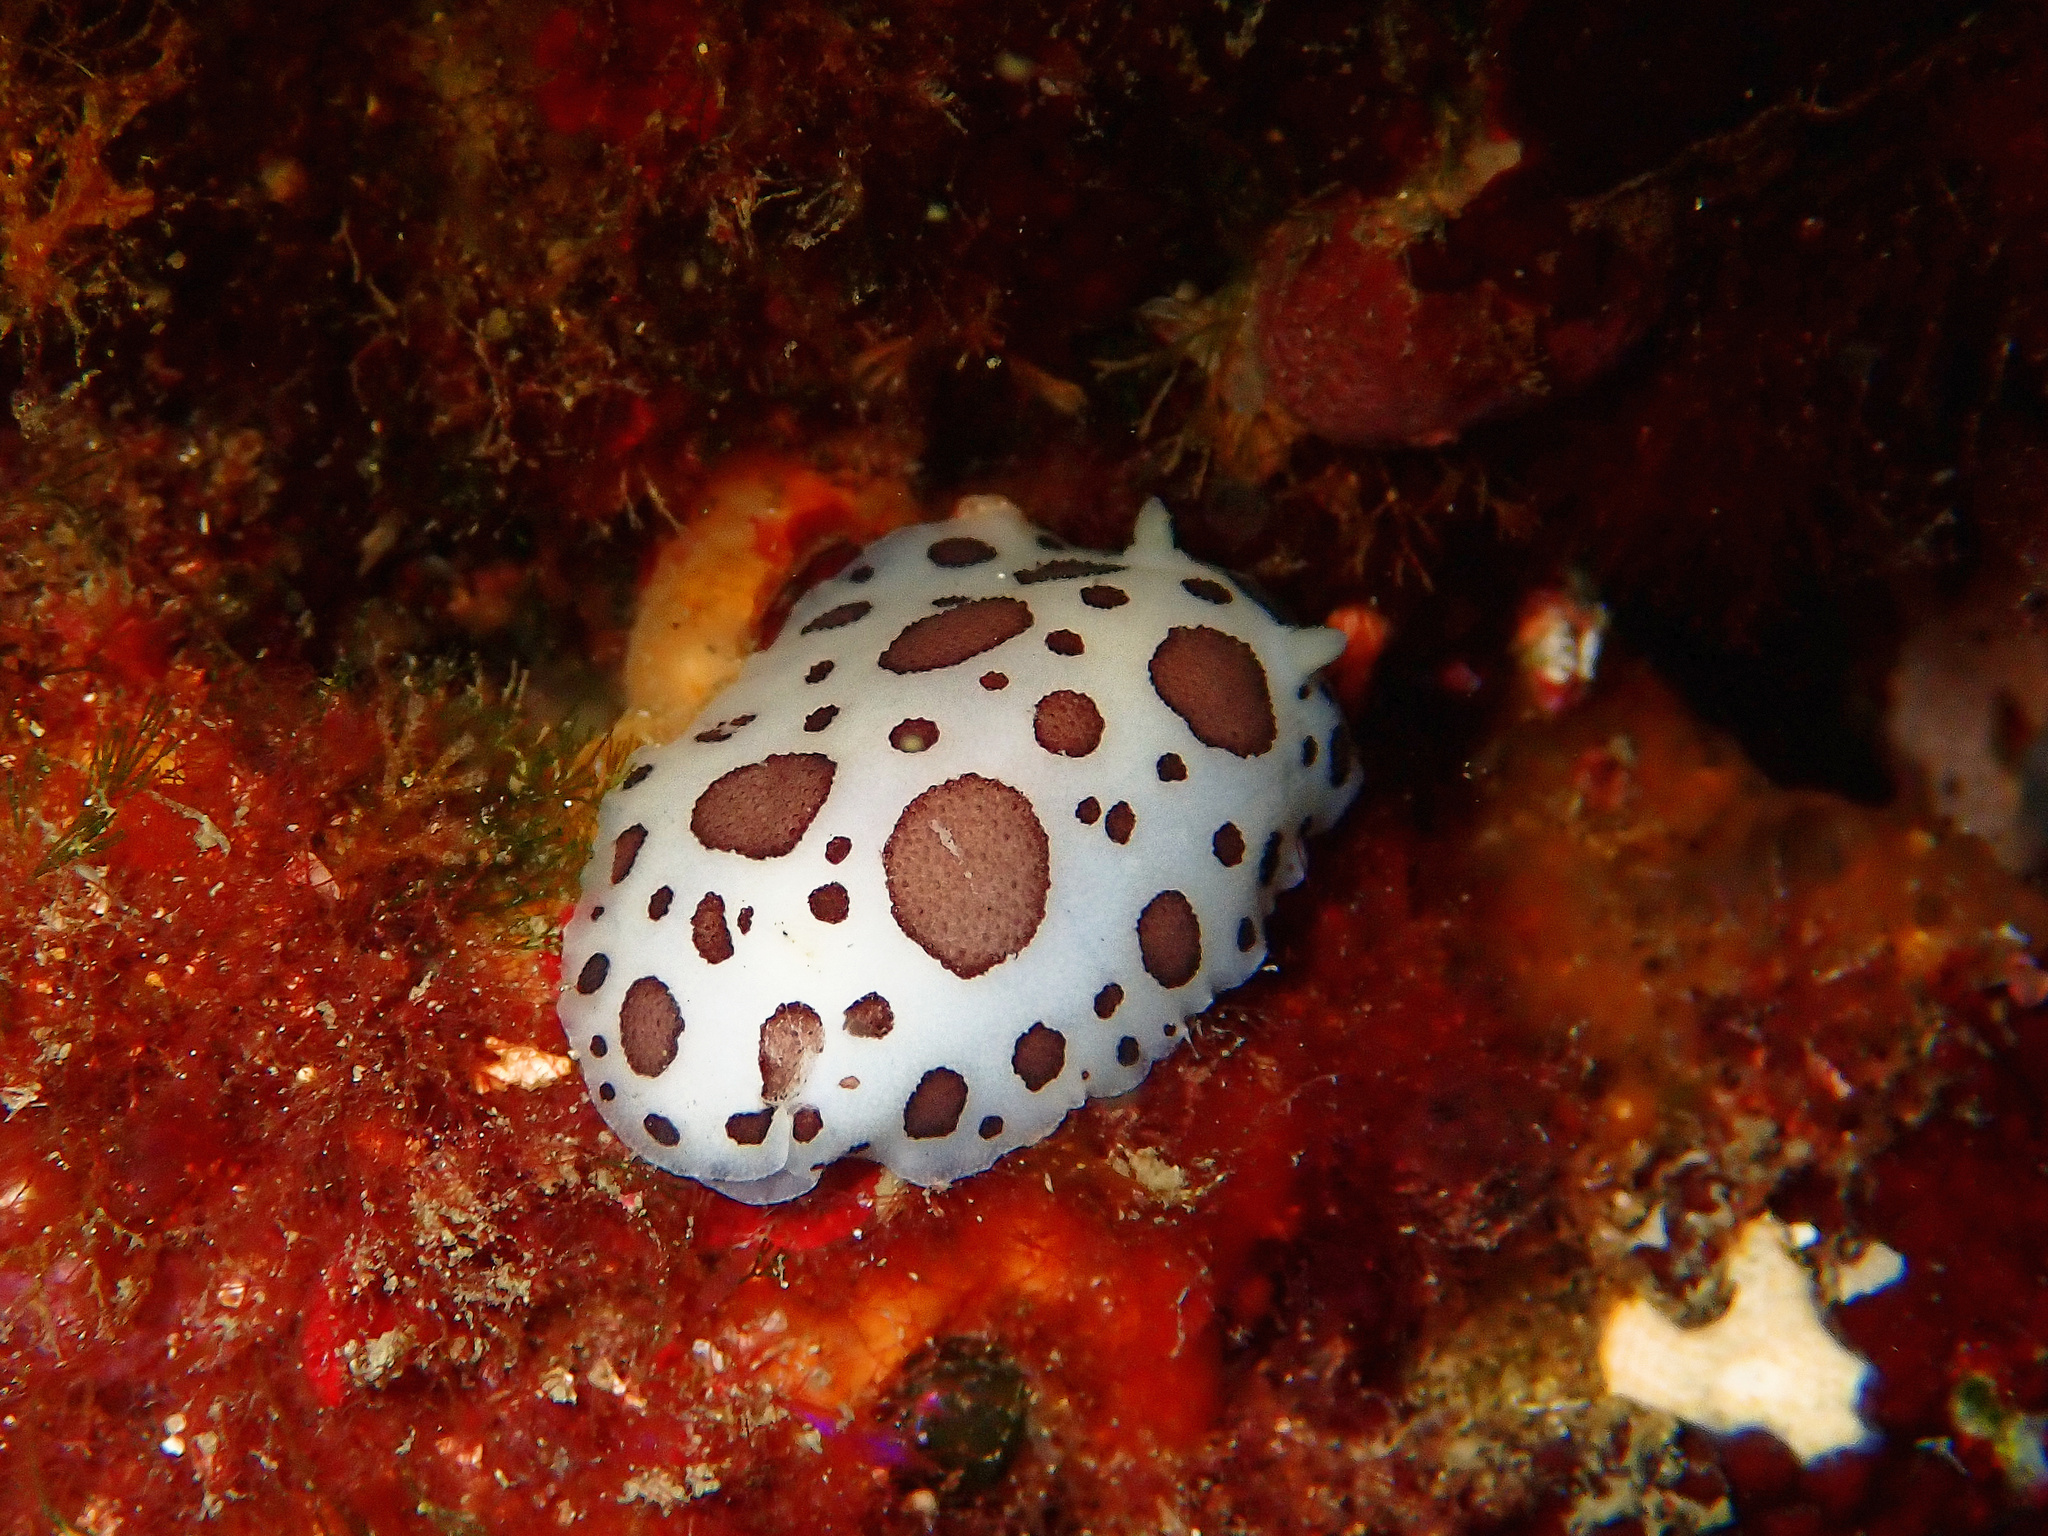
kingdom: Animalia
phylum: Mollusca
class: Gastropoda
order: Nudibranchia
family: Discodorididae
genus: Peltodoris
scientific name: Peltodoris atromaculata
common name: Swiss cow nudibranch
